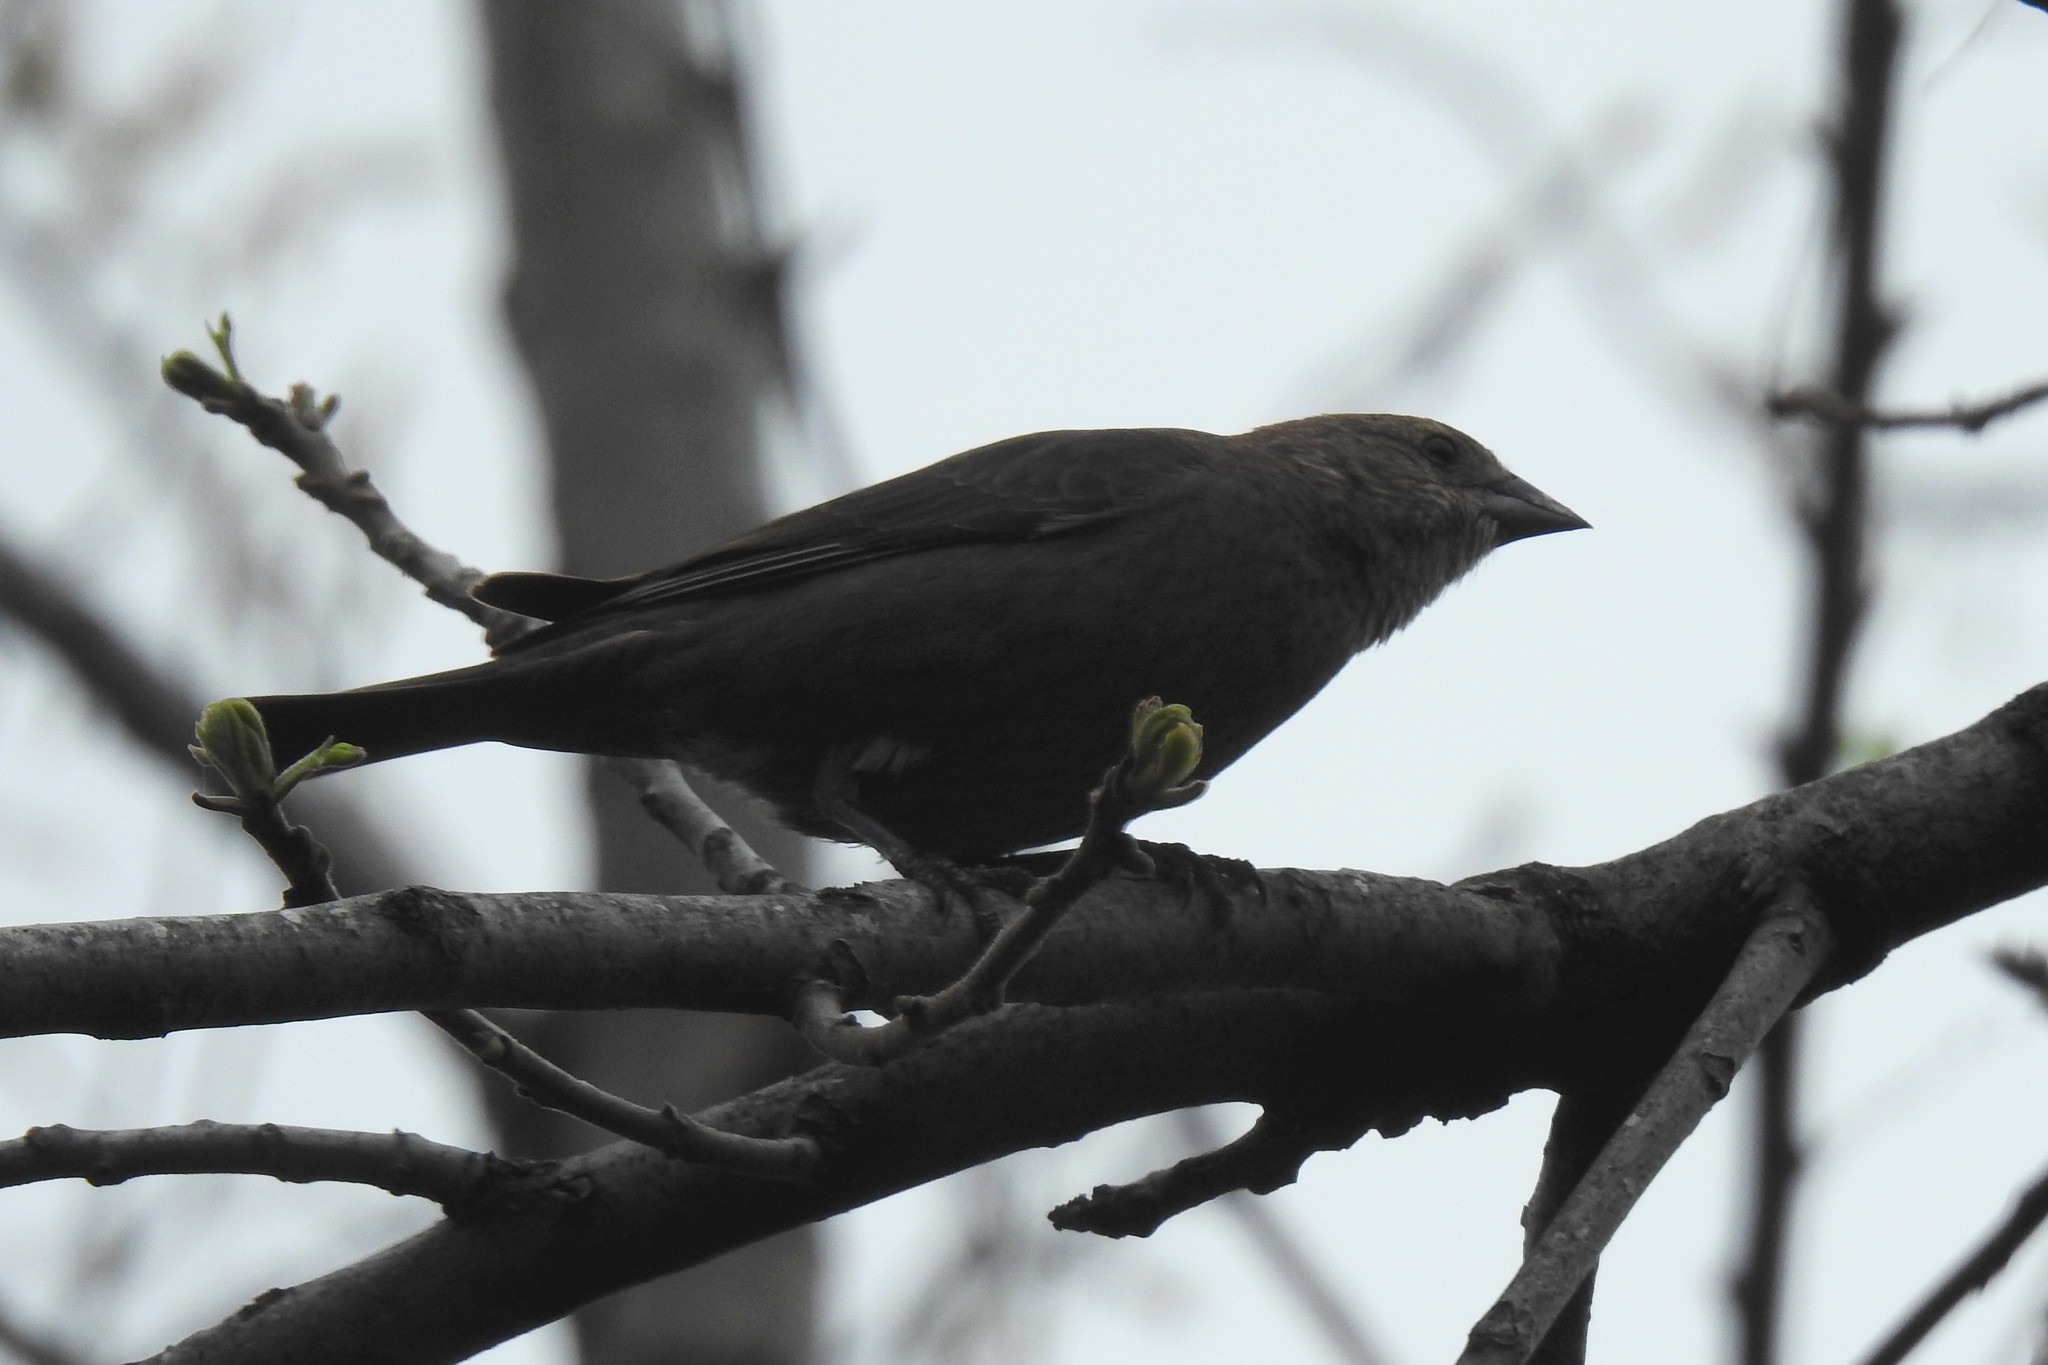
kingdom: Animalia
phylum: Chordata
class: Aves
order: Passeriformes
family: Icteridae
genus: Molothrus
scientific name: Molothrus ater
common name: Brown-headed cowbird
